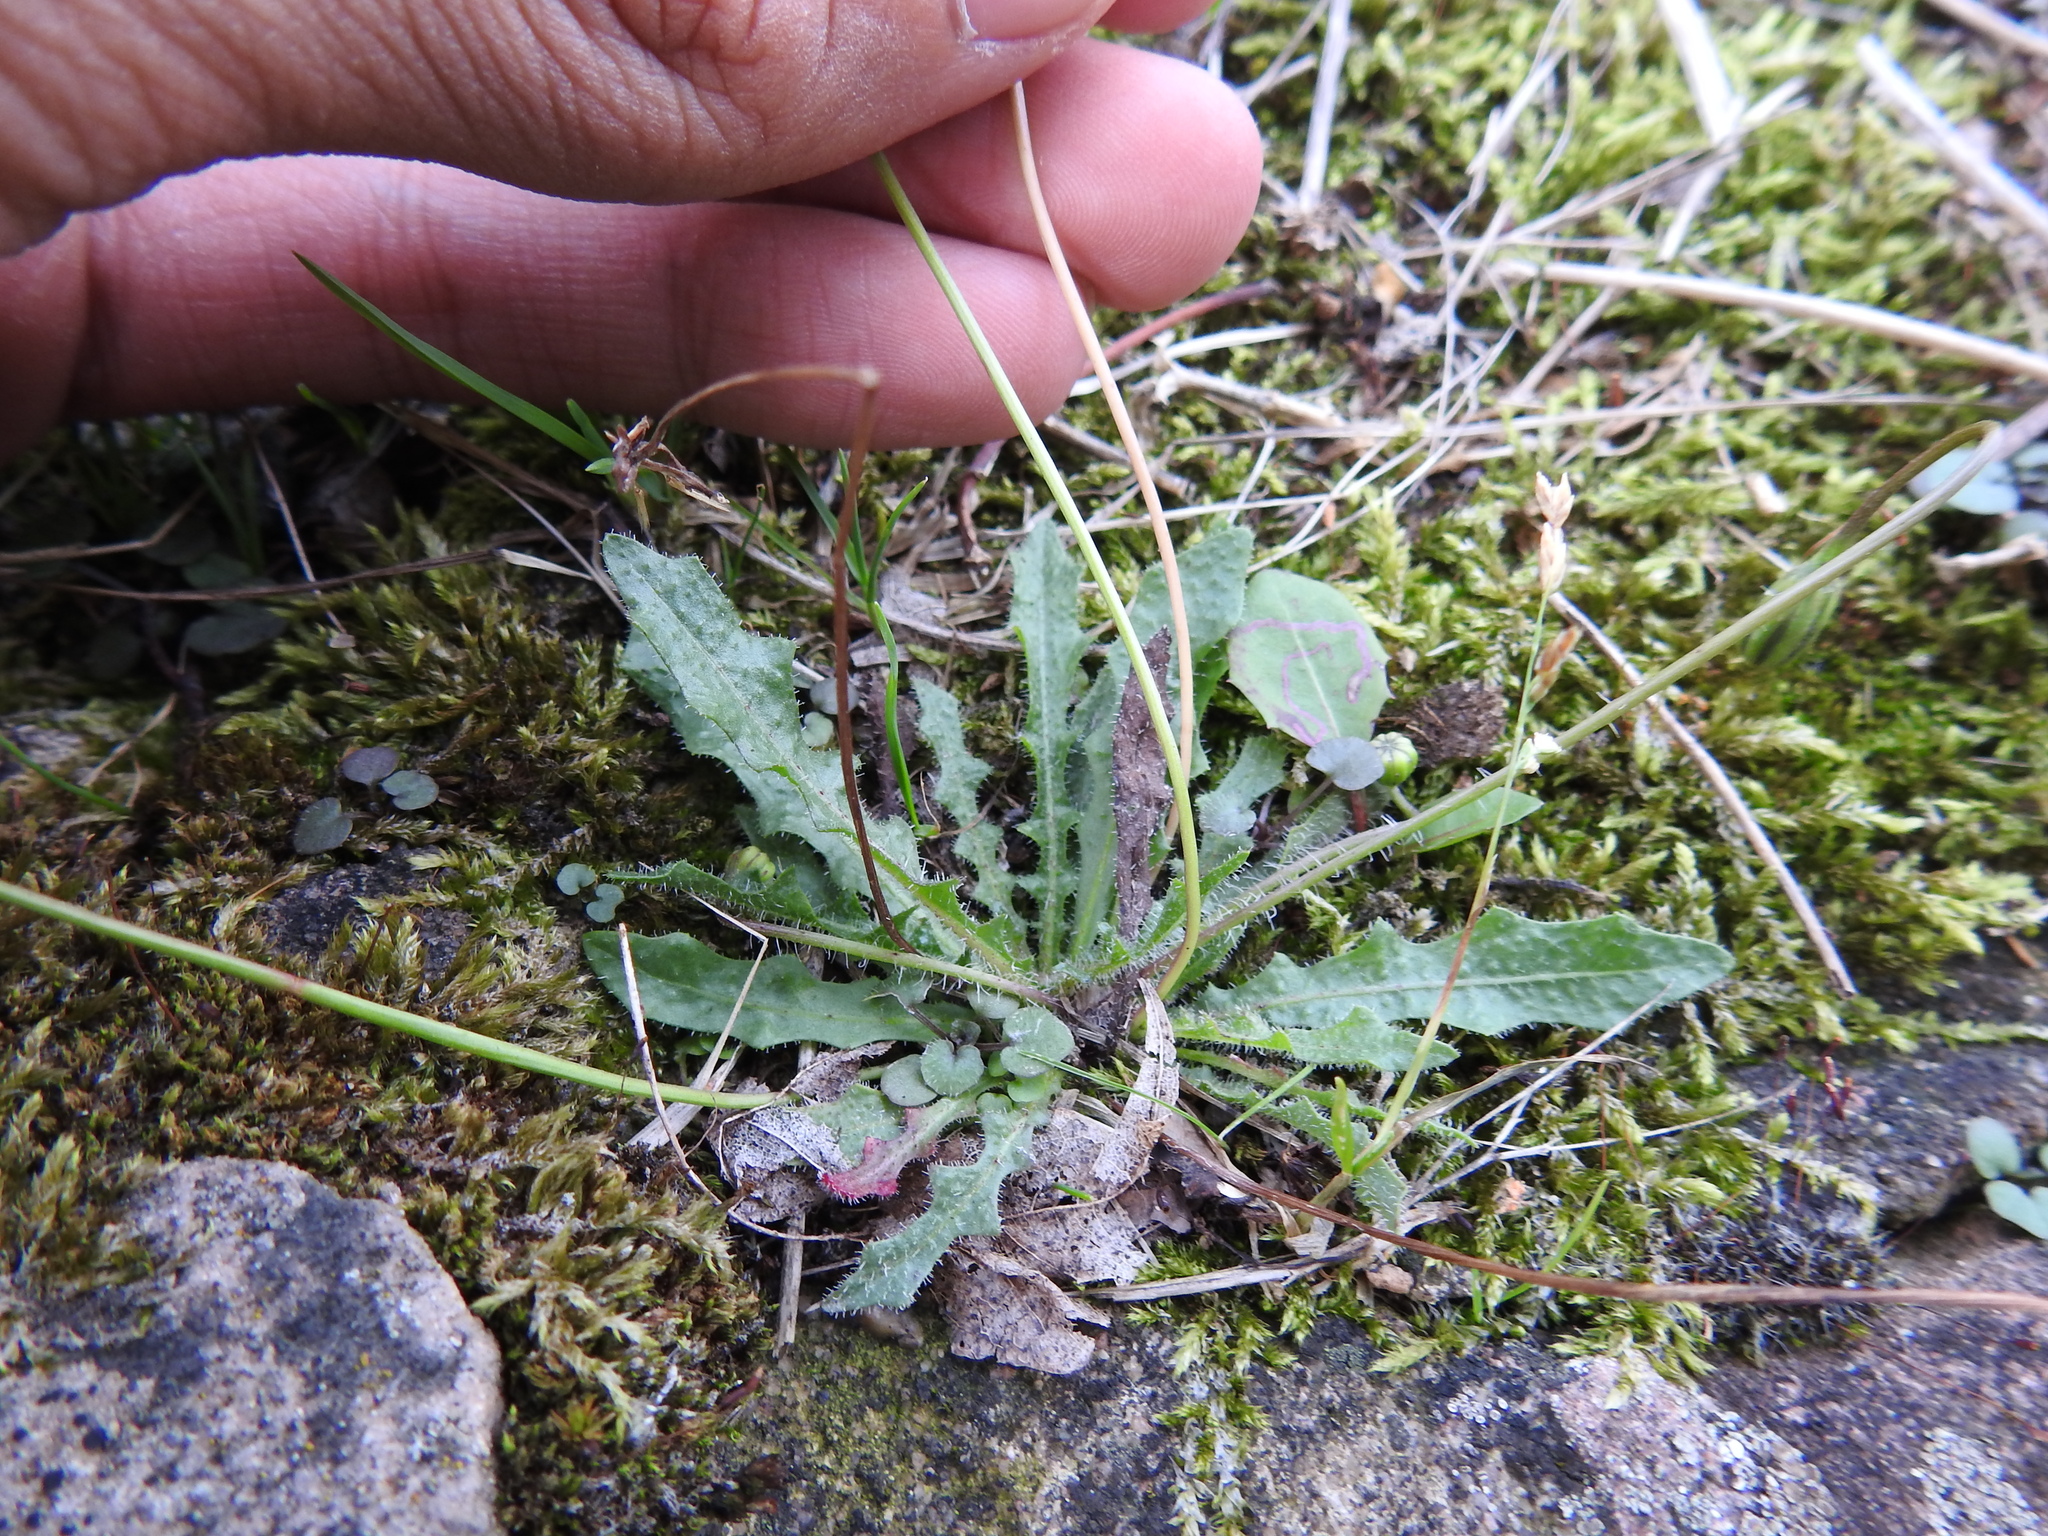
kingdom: Plantae
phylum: Tracheophyta
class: Magnoliopsida
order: Asterales
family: Asteraceae
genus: Hypochaeris
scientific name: Hypochaeris radicata
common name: Flatweed
